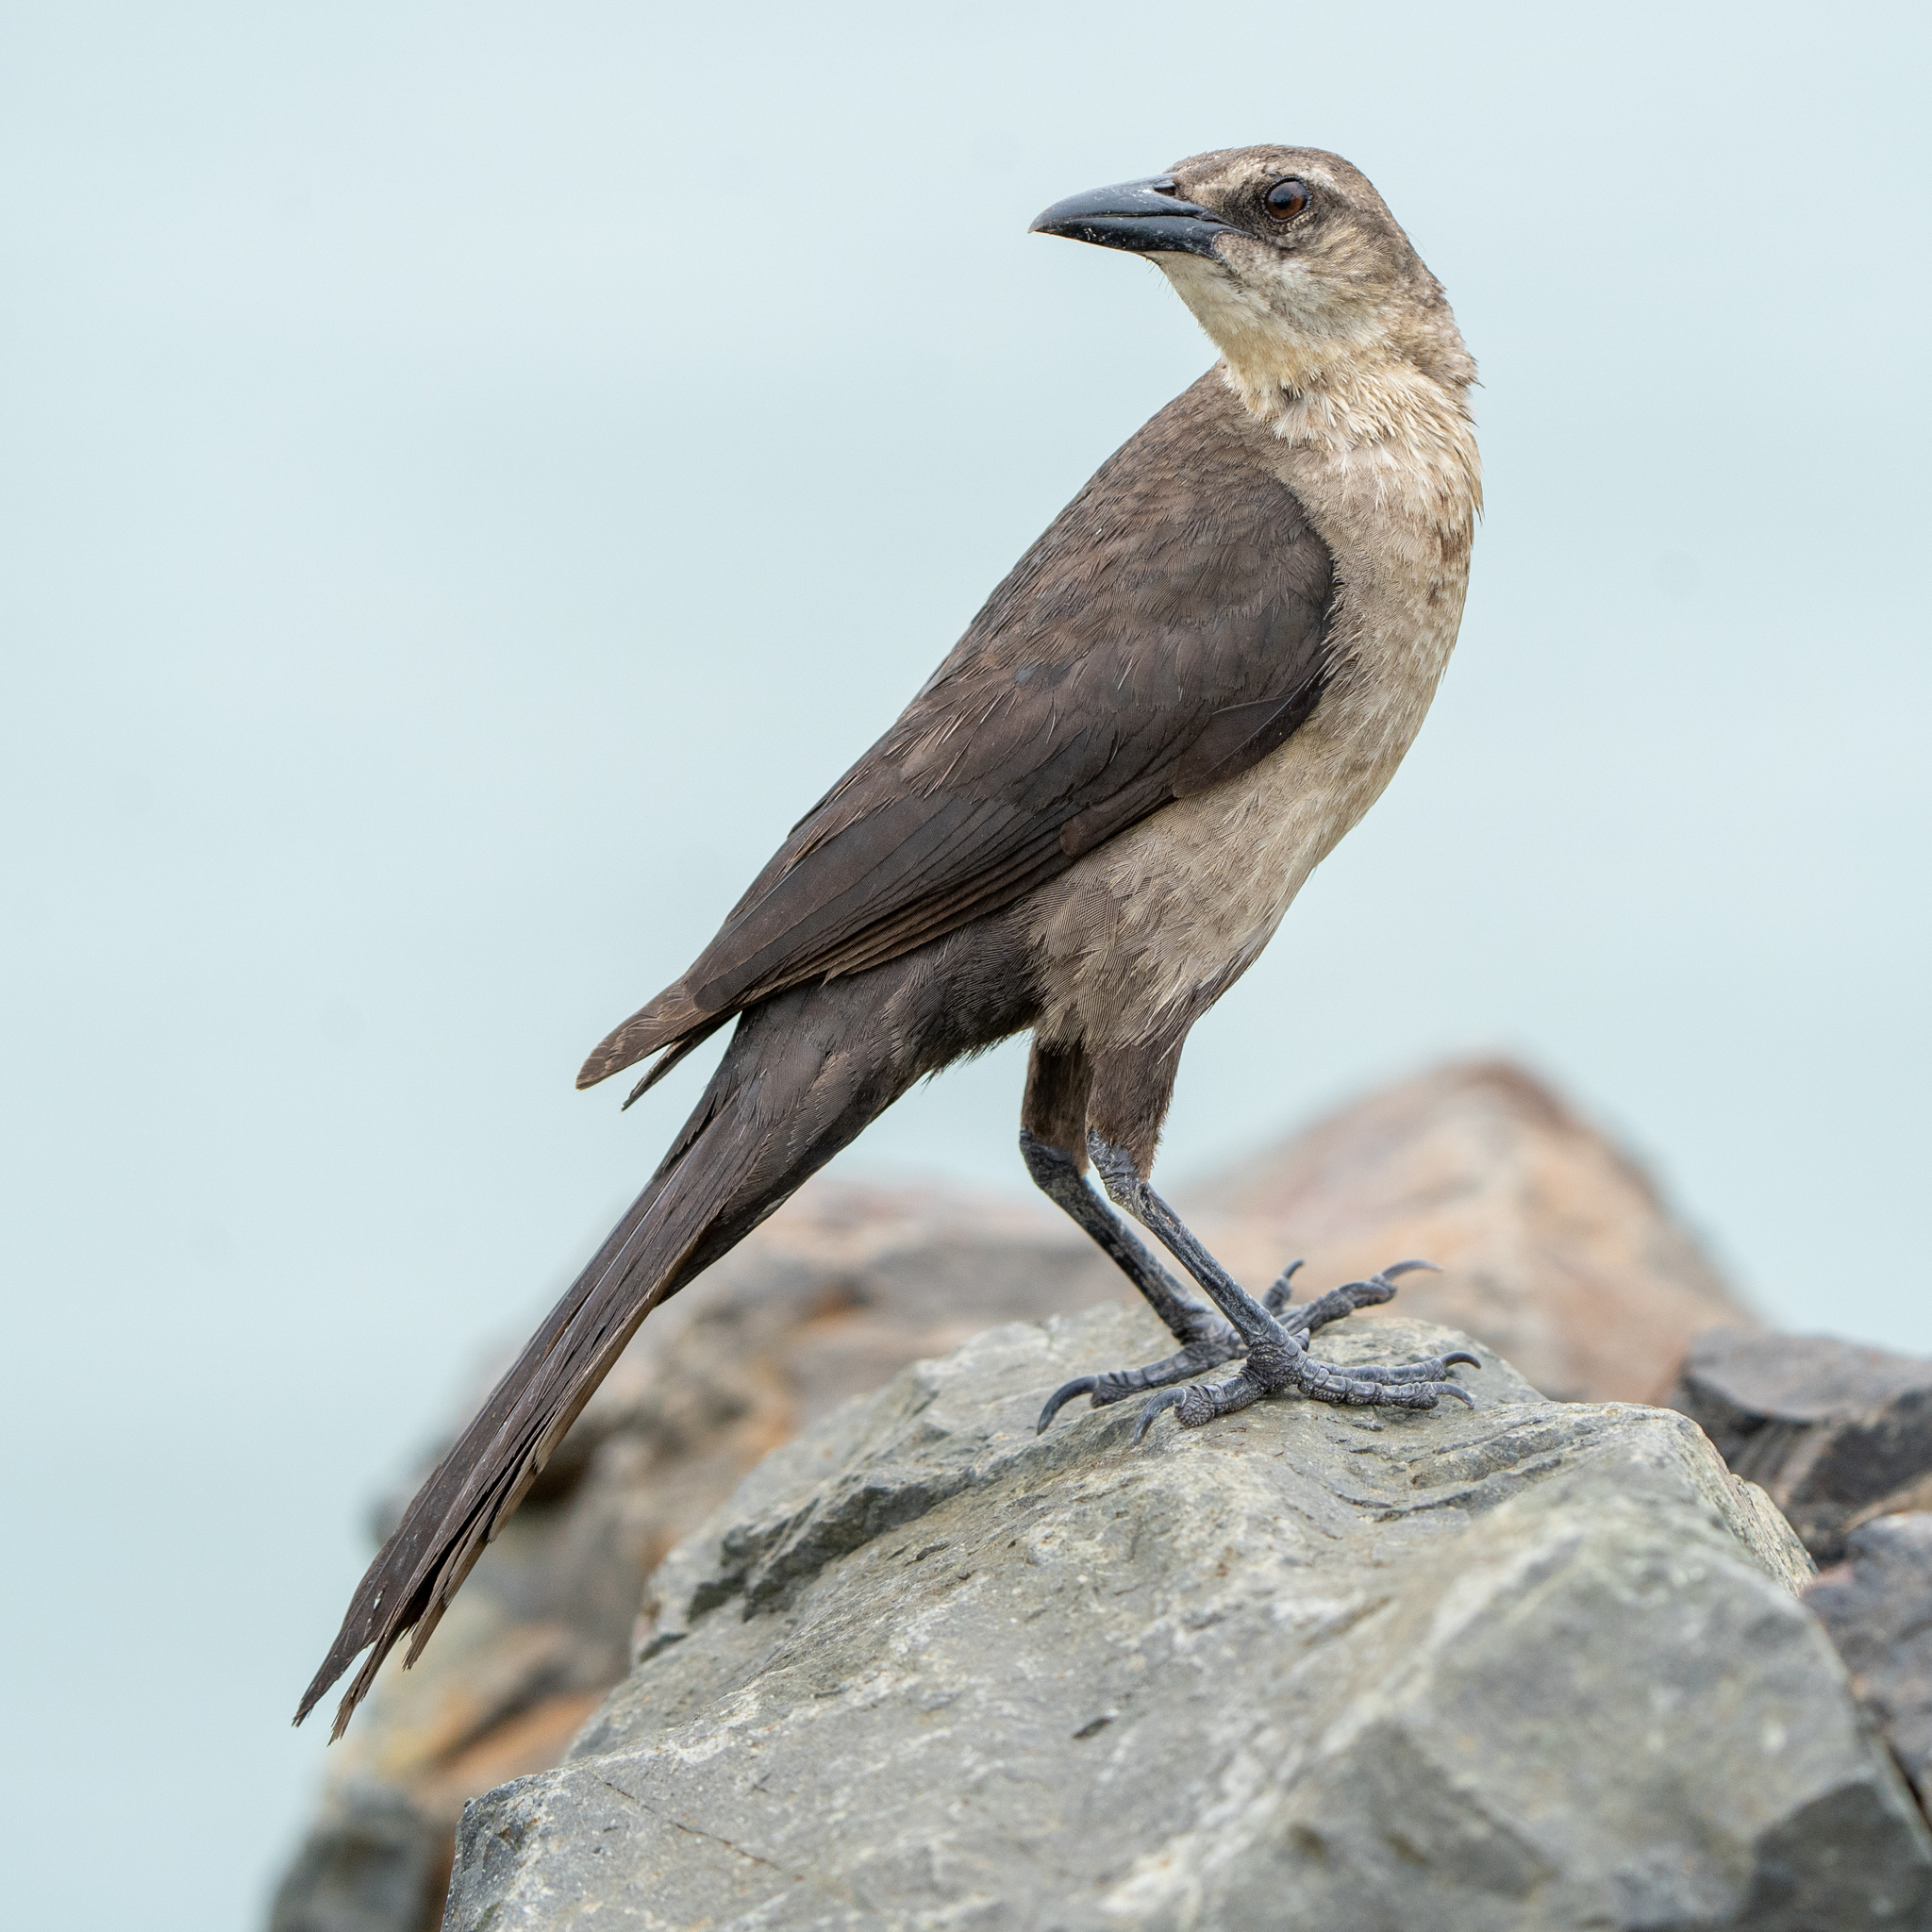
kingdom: Animalia
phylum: Chordata
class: Aves
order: Passeriformes
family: Icteridae
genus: Quiscalus
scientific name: Quiscalus mexicanus
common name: Great-tailed grackle
